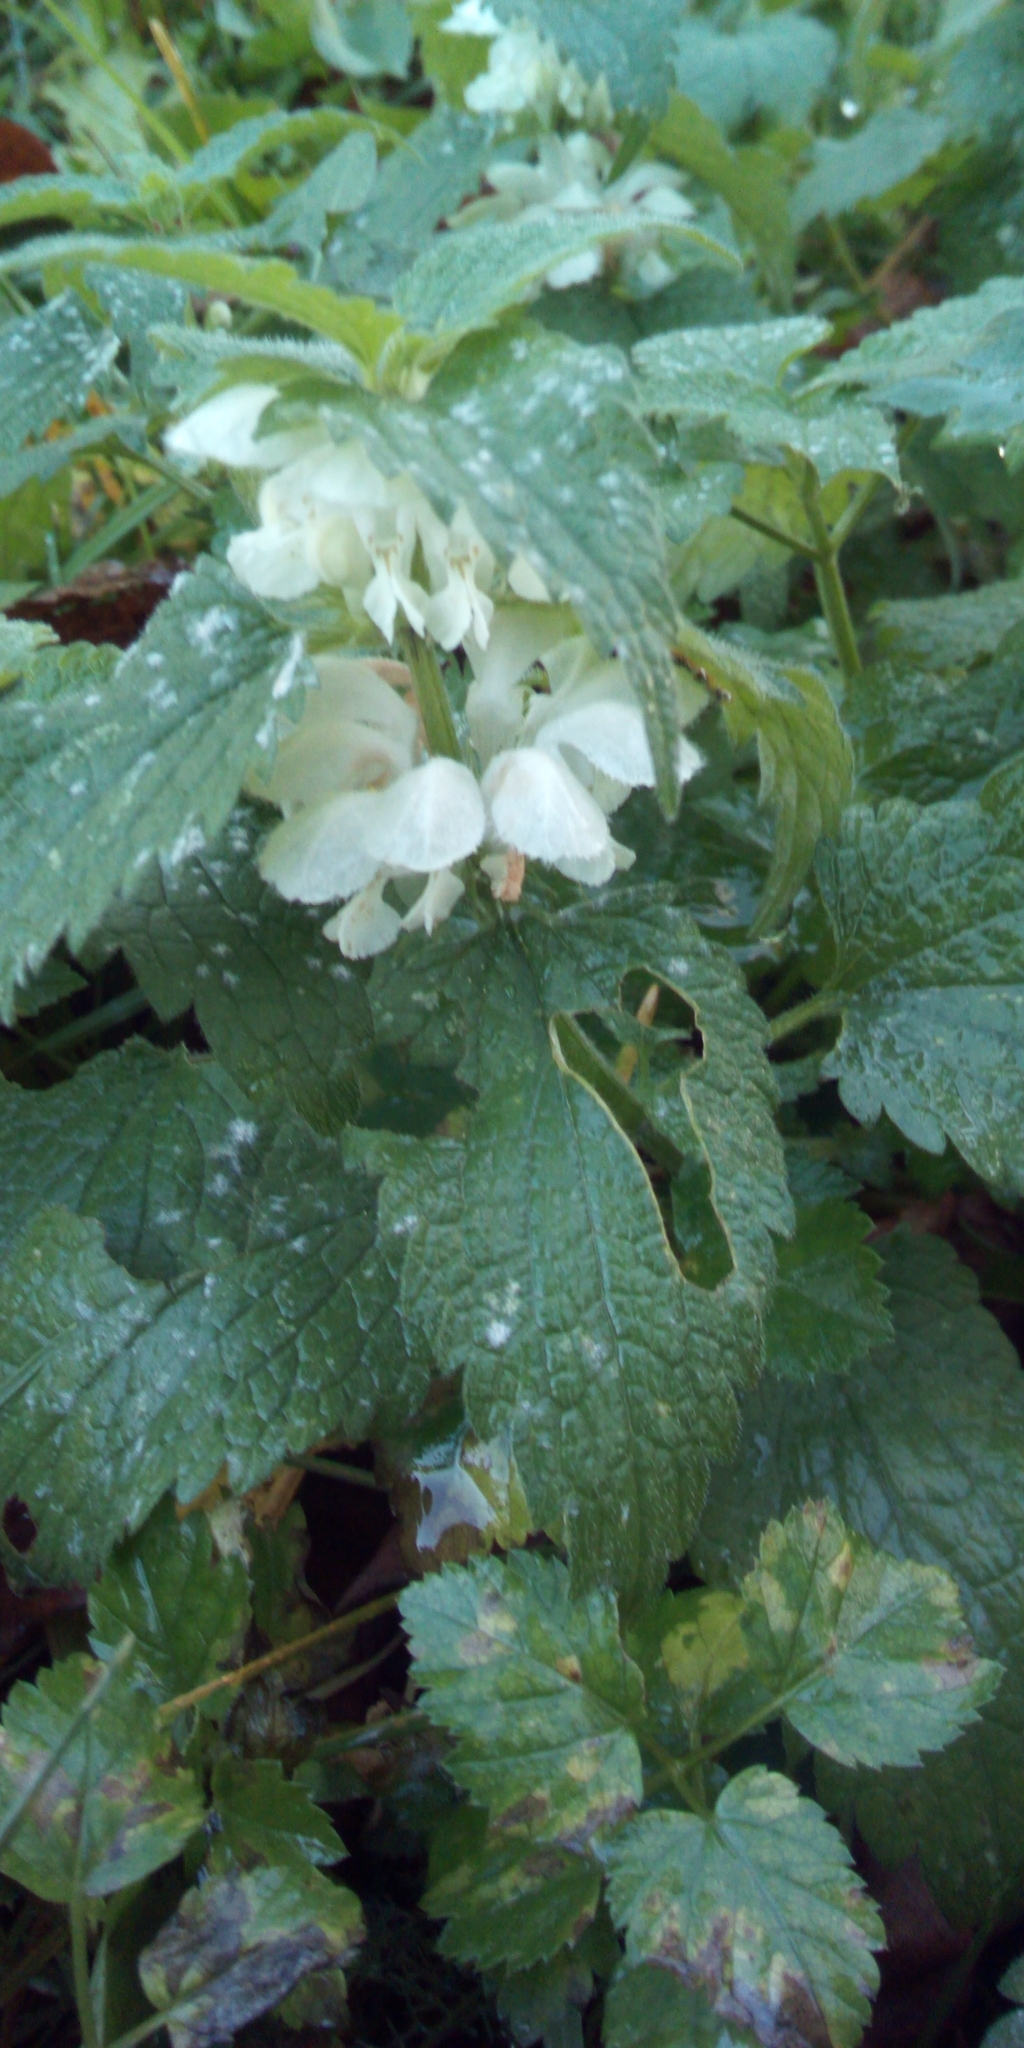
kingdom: Plantae
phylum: Tracheophyta
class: Magnoliopsida
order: Lamiales
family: Lamiaceae
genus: Lamium
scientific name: Lamium album
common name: White dead-nettle
